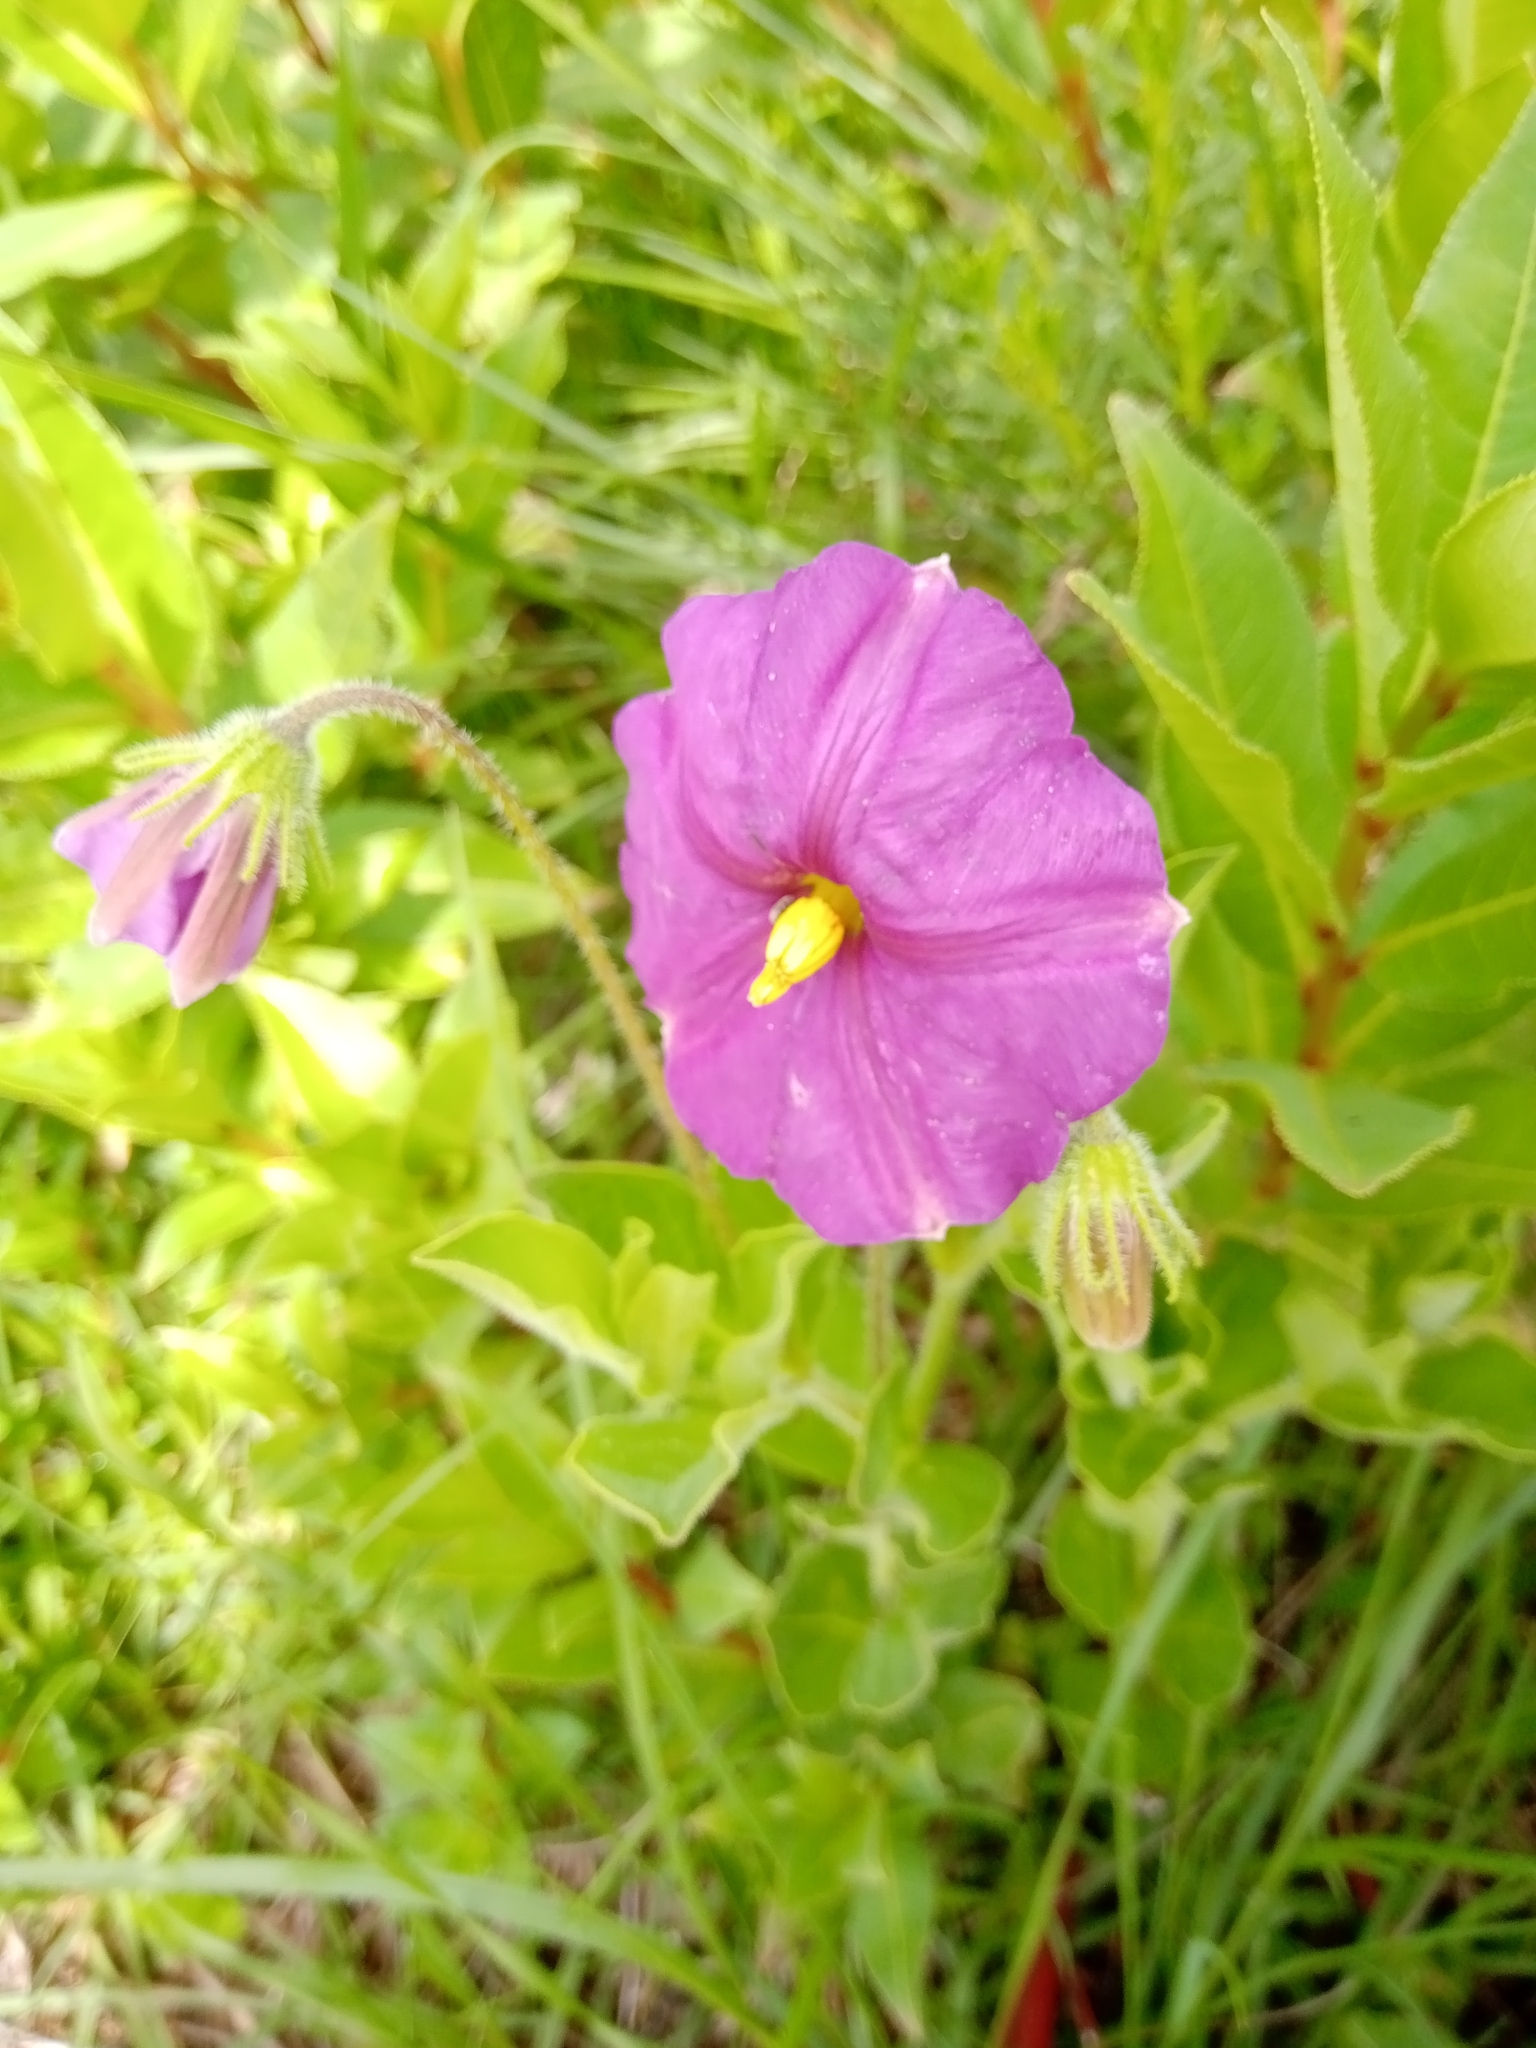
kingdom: Plantae
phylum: Tracheophyta
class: Magnoliopsida
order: Solanales
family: Solanaceae
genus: Lycianthes
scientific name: Lycianthes moziniana
